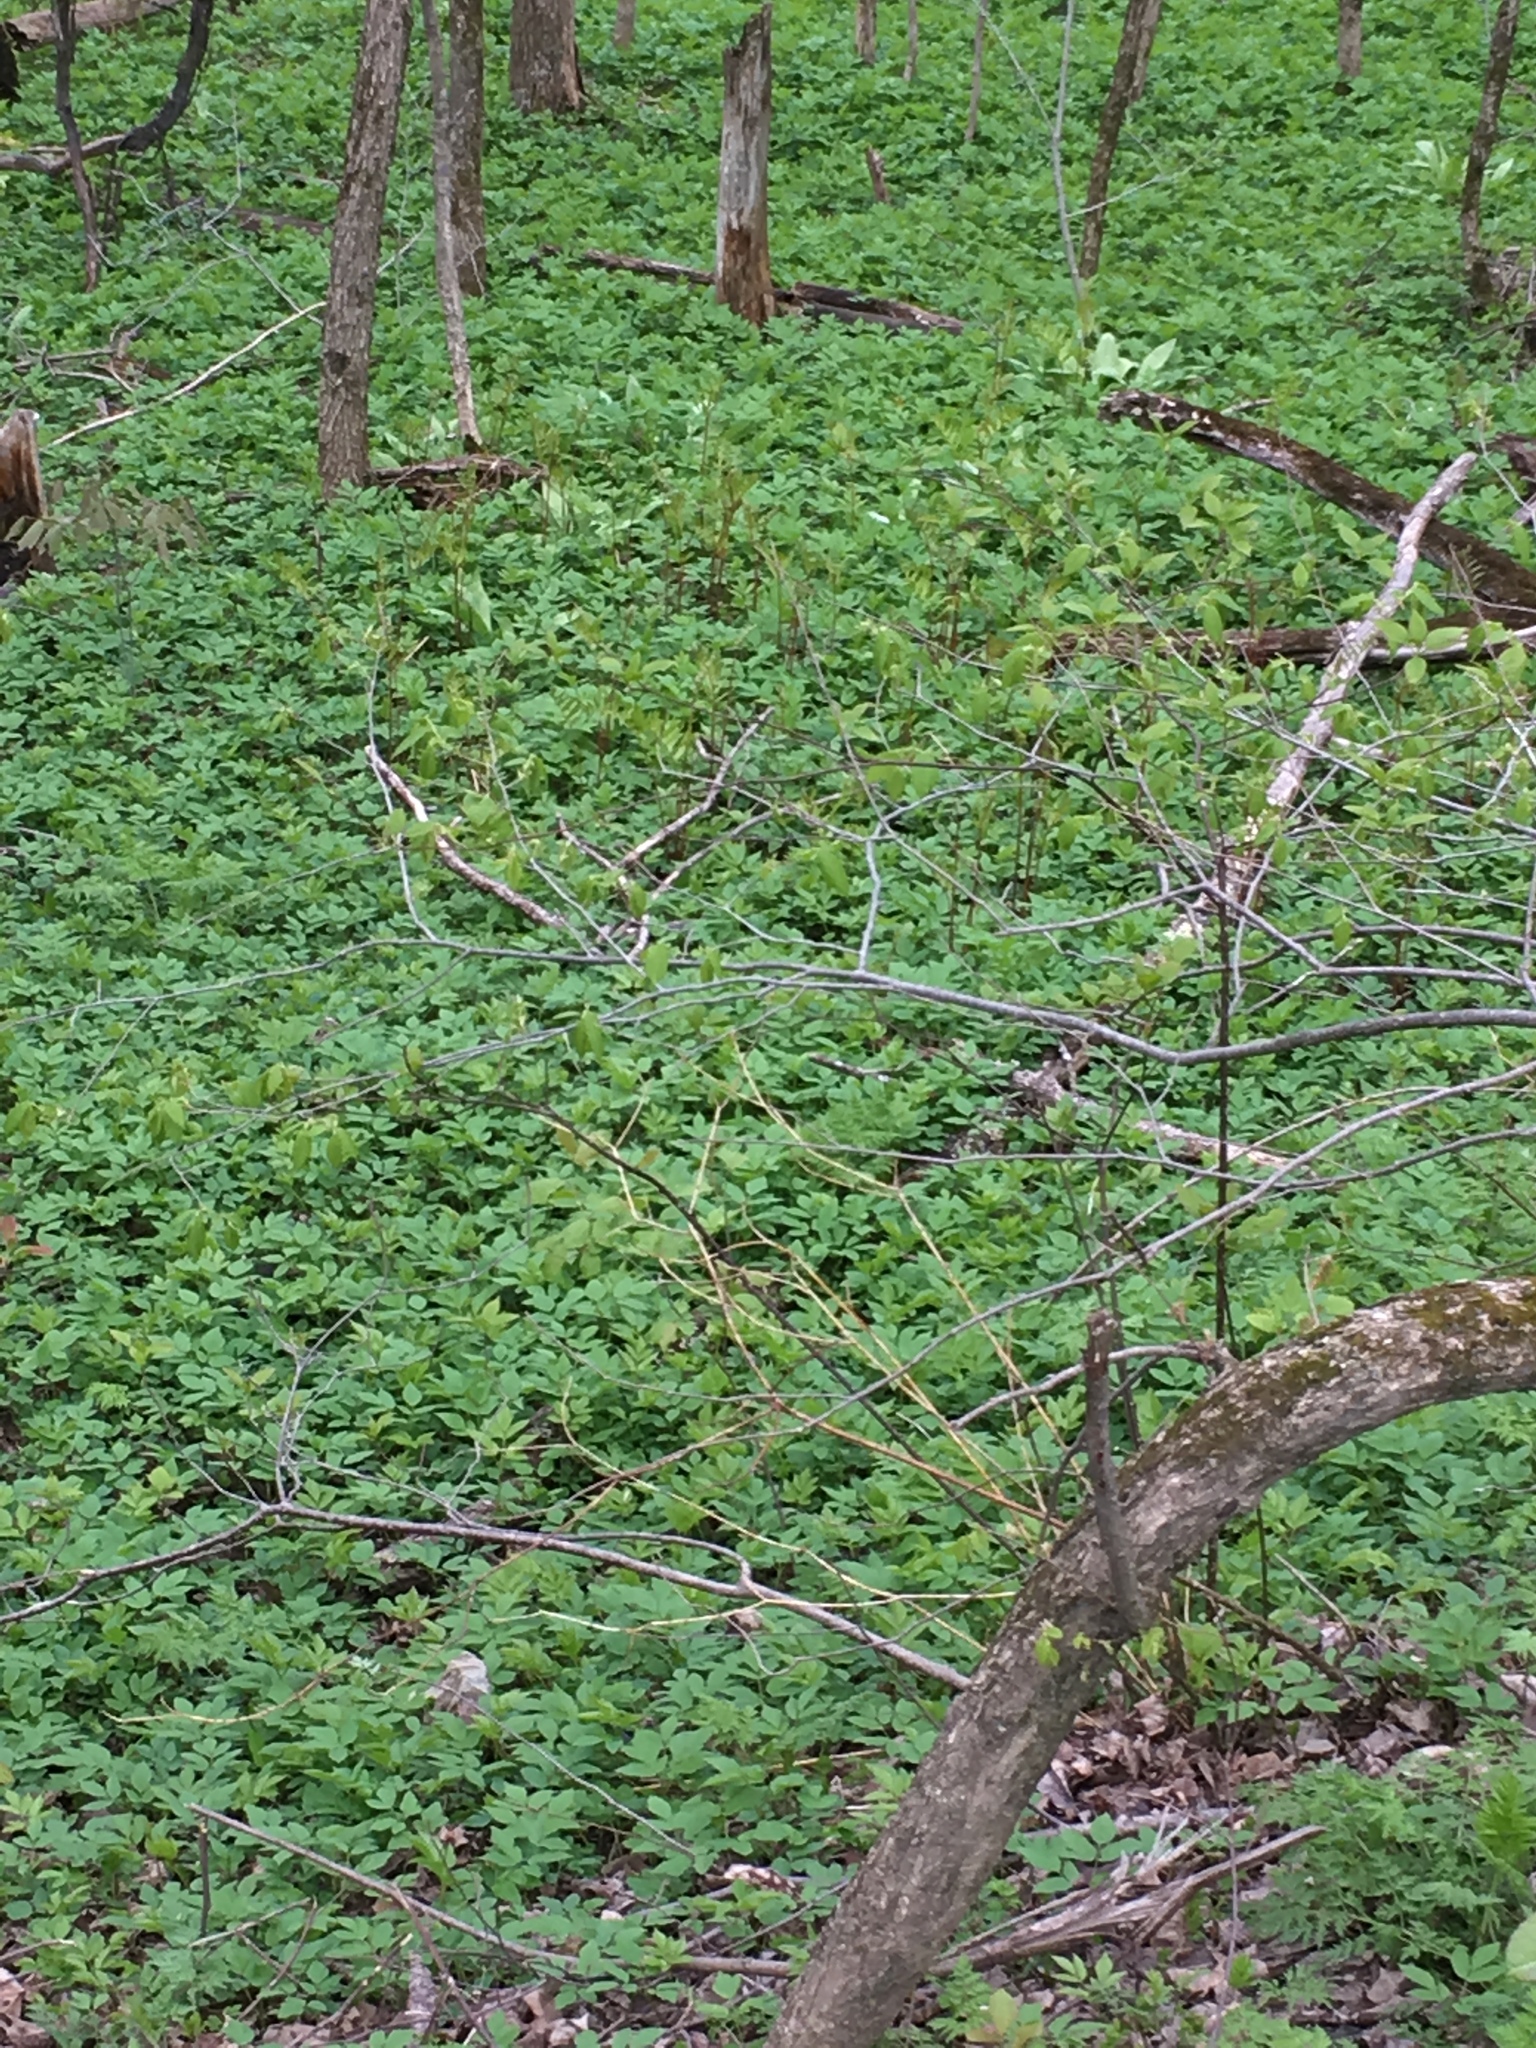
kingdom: Plantae
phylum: Tracheophyta
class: Magnoliopsida
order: Apiales
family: Apiaceae
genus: Aegopodium
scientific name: Aegopodium podagraria
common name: Ground-elder
